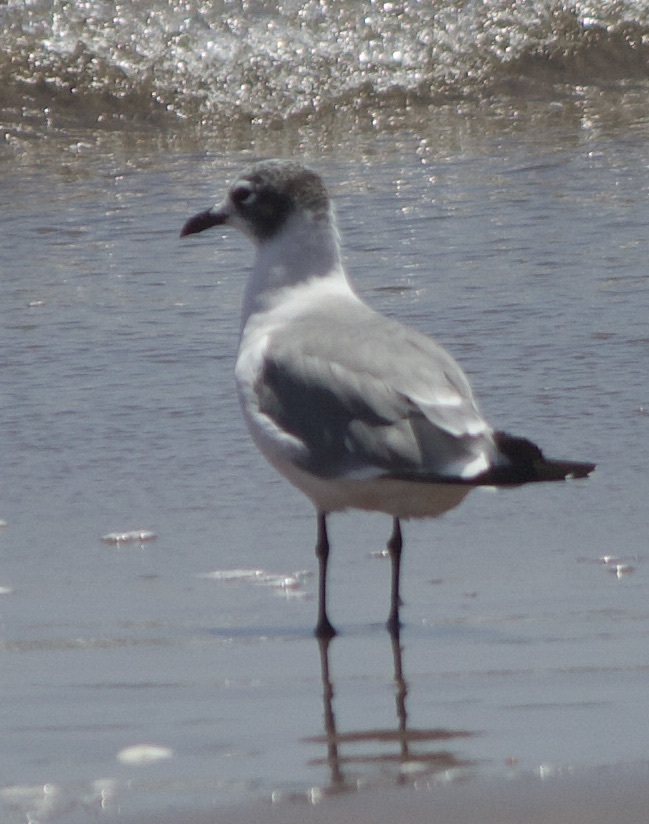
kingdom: Animalia
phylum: Chordata
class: Aves
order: Charadriiformes
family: Laridae
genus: Leucophaeus
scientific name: Leucophaeus pipixcan
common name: Franklin's gull
